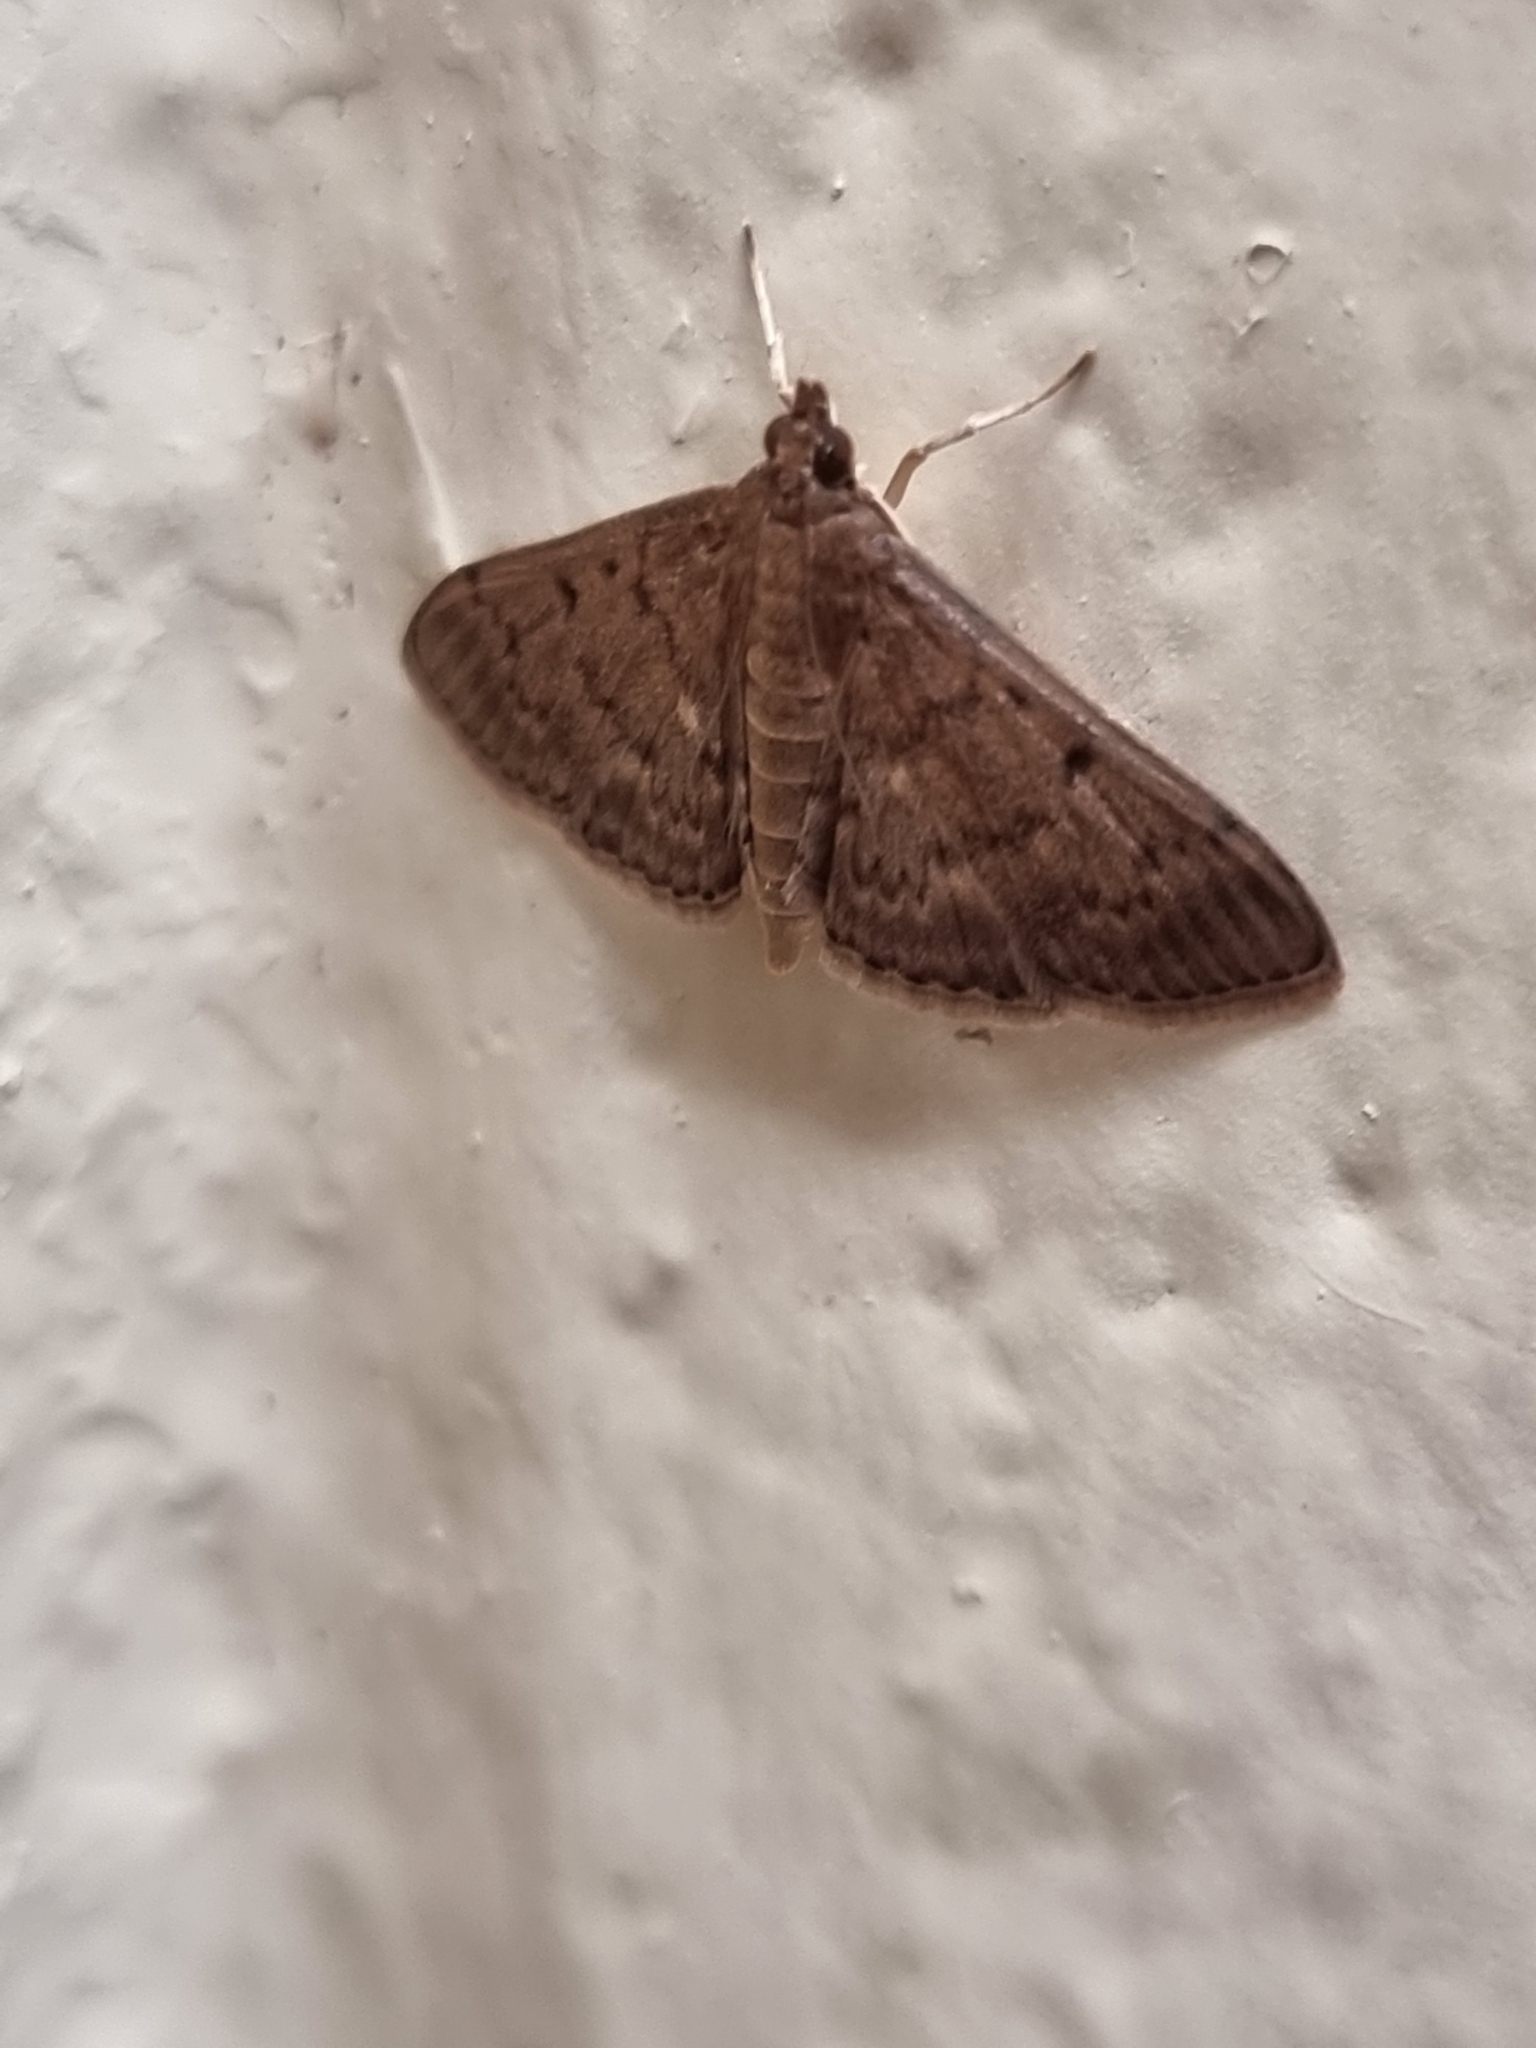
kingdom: Animalia
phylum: Arthropoda
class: Insecta
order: Lepidoptera
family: Crambidae
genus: Herpetogramma
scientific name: Herpetogramma licarsisalis
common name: Grass webworm
